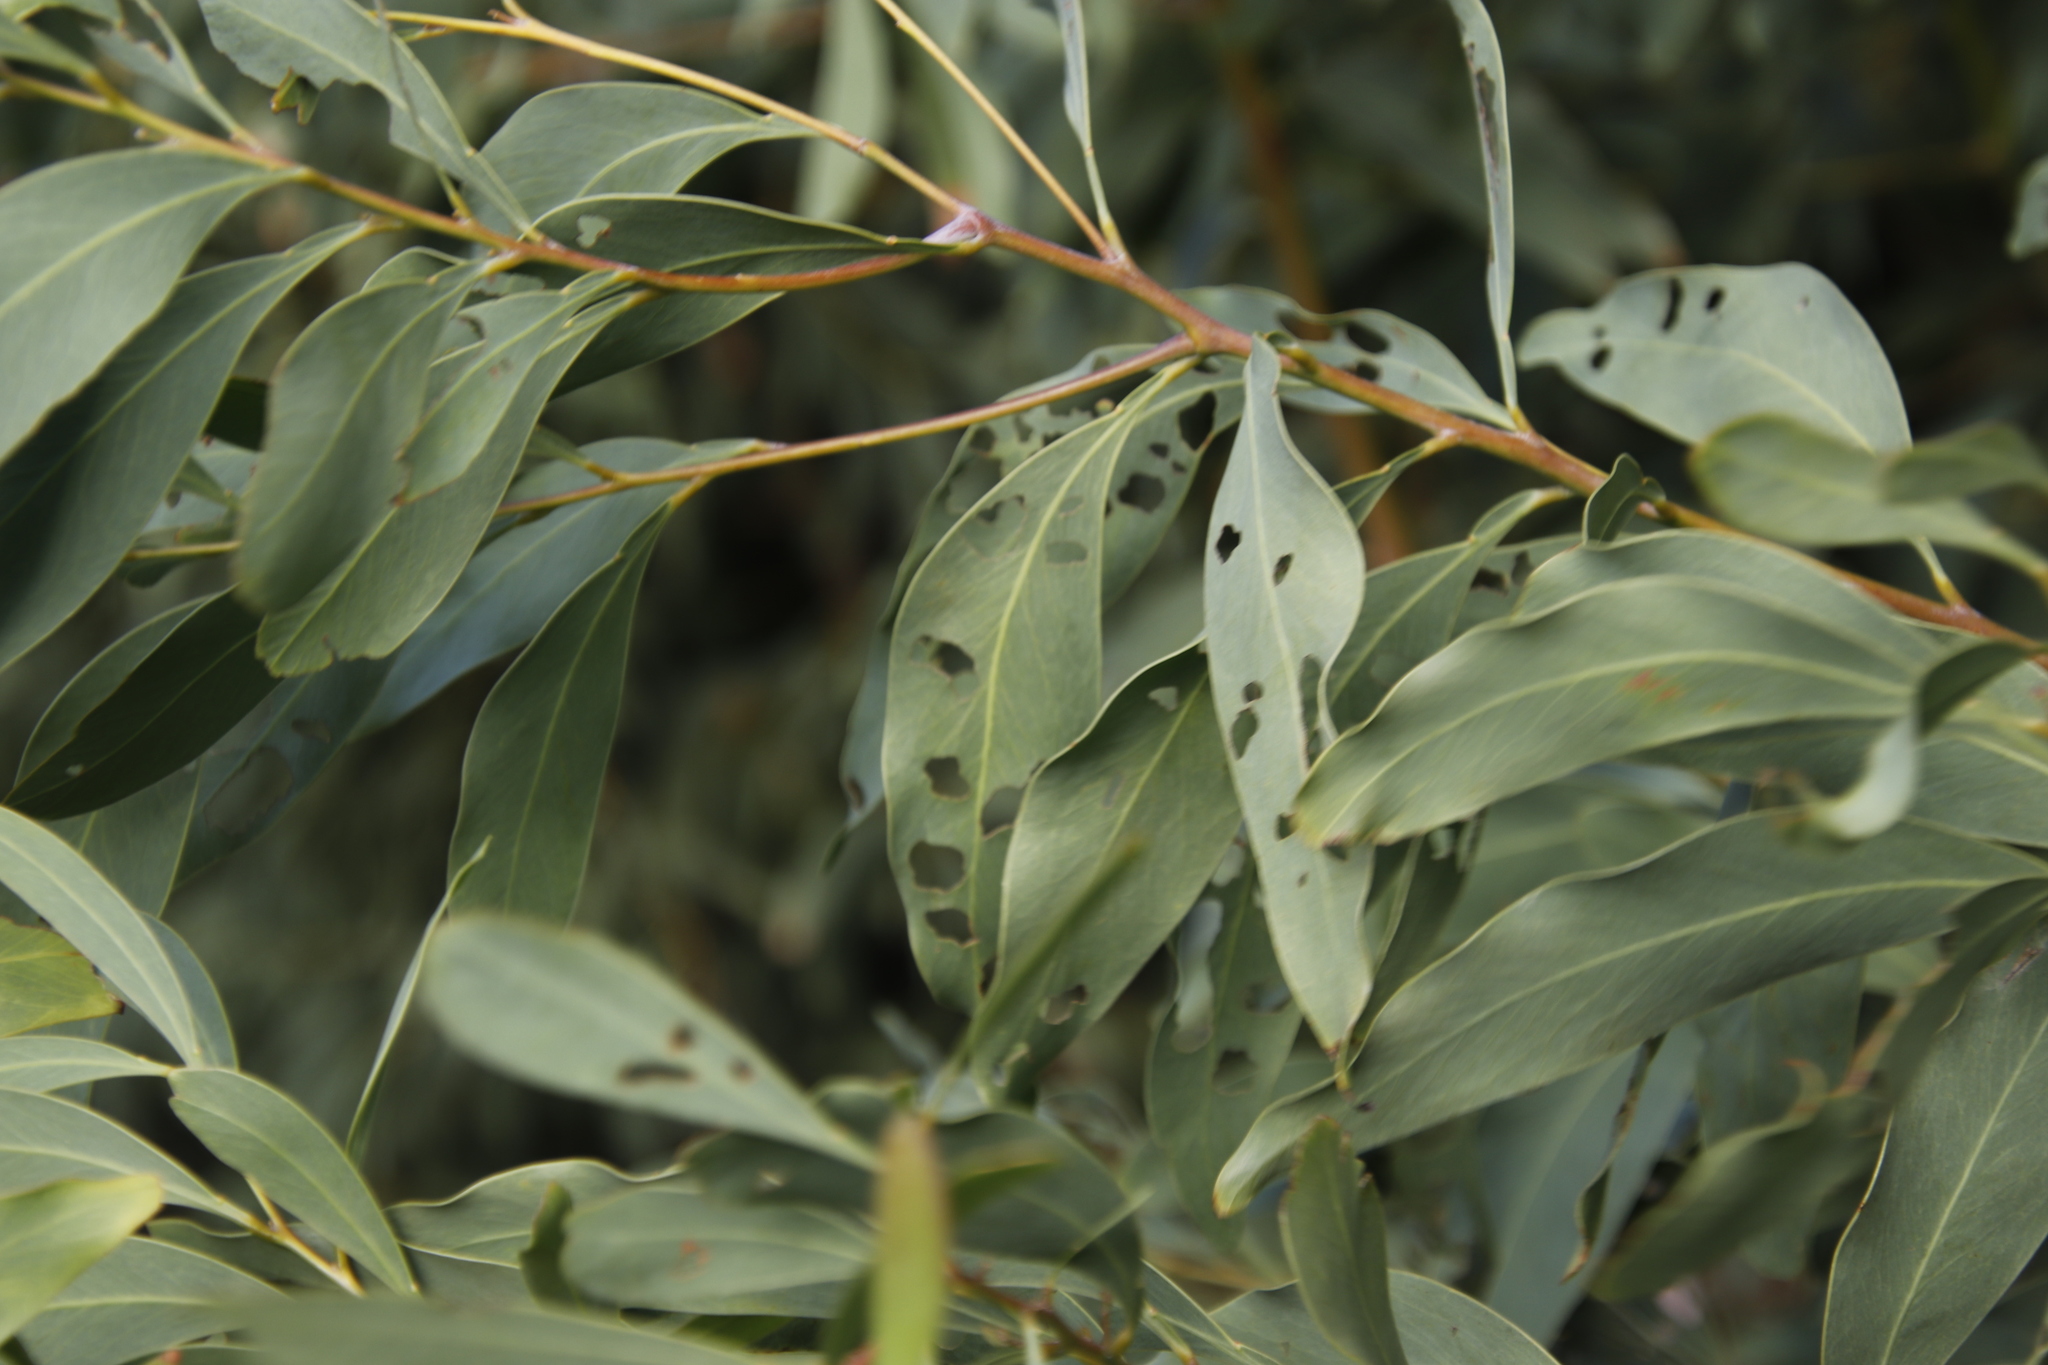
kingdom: Plantae
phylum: Tracheophyta
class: Magnoliopsida
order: Fabales
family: Fabaceae
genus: Acacia
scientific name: Acacia falciformis
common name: Tanning wattle
